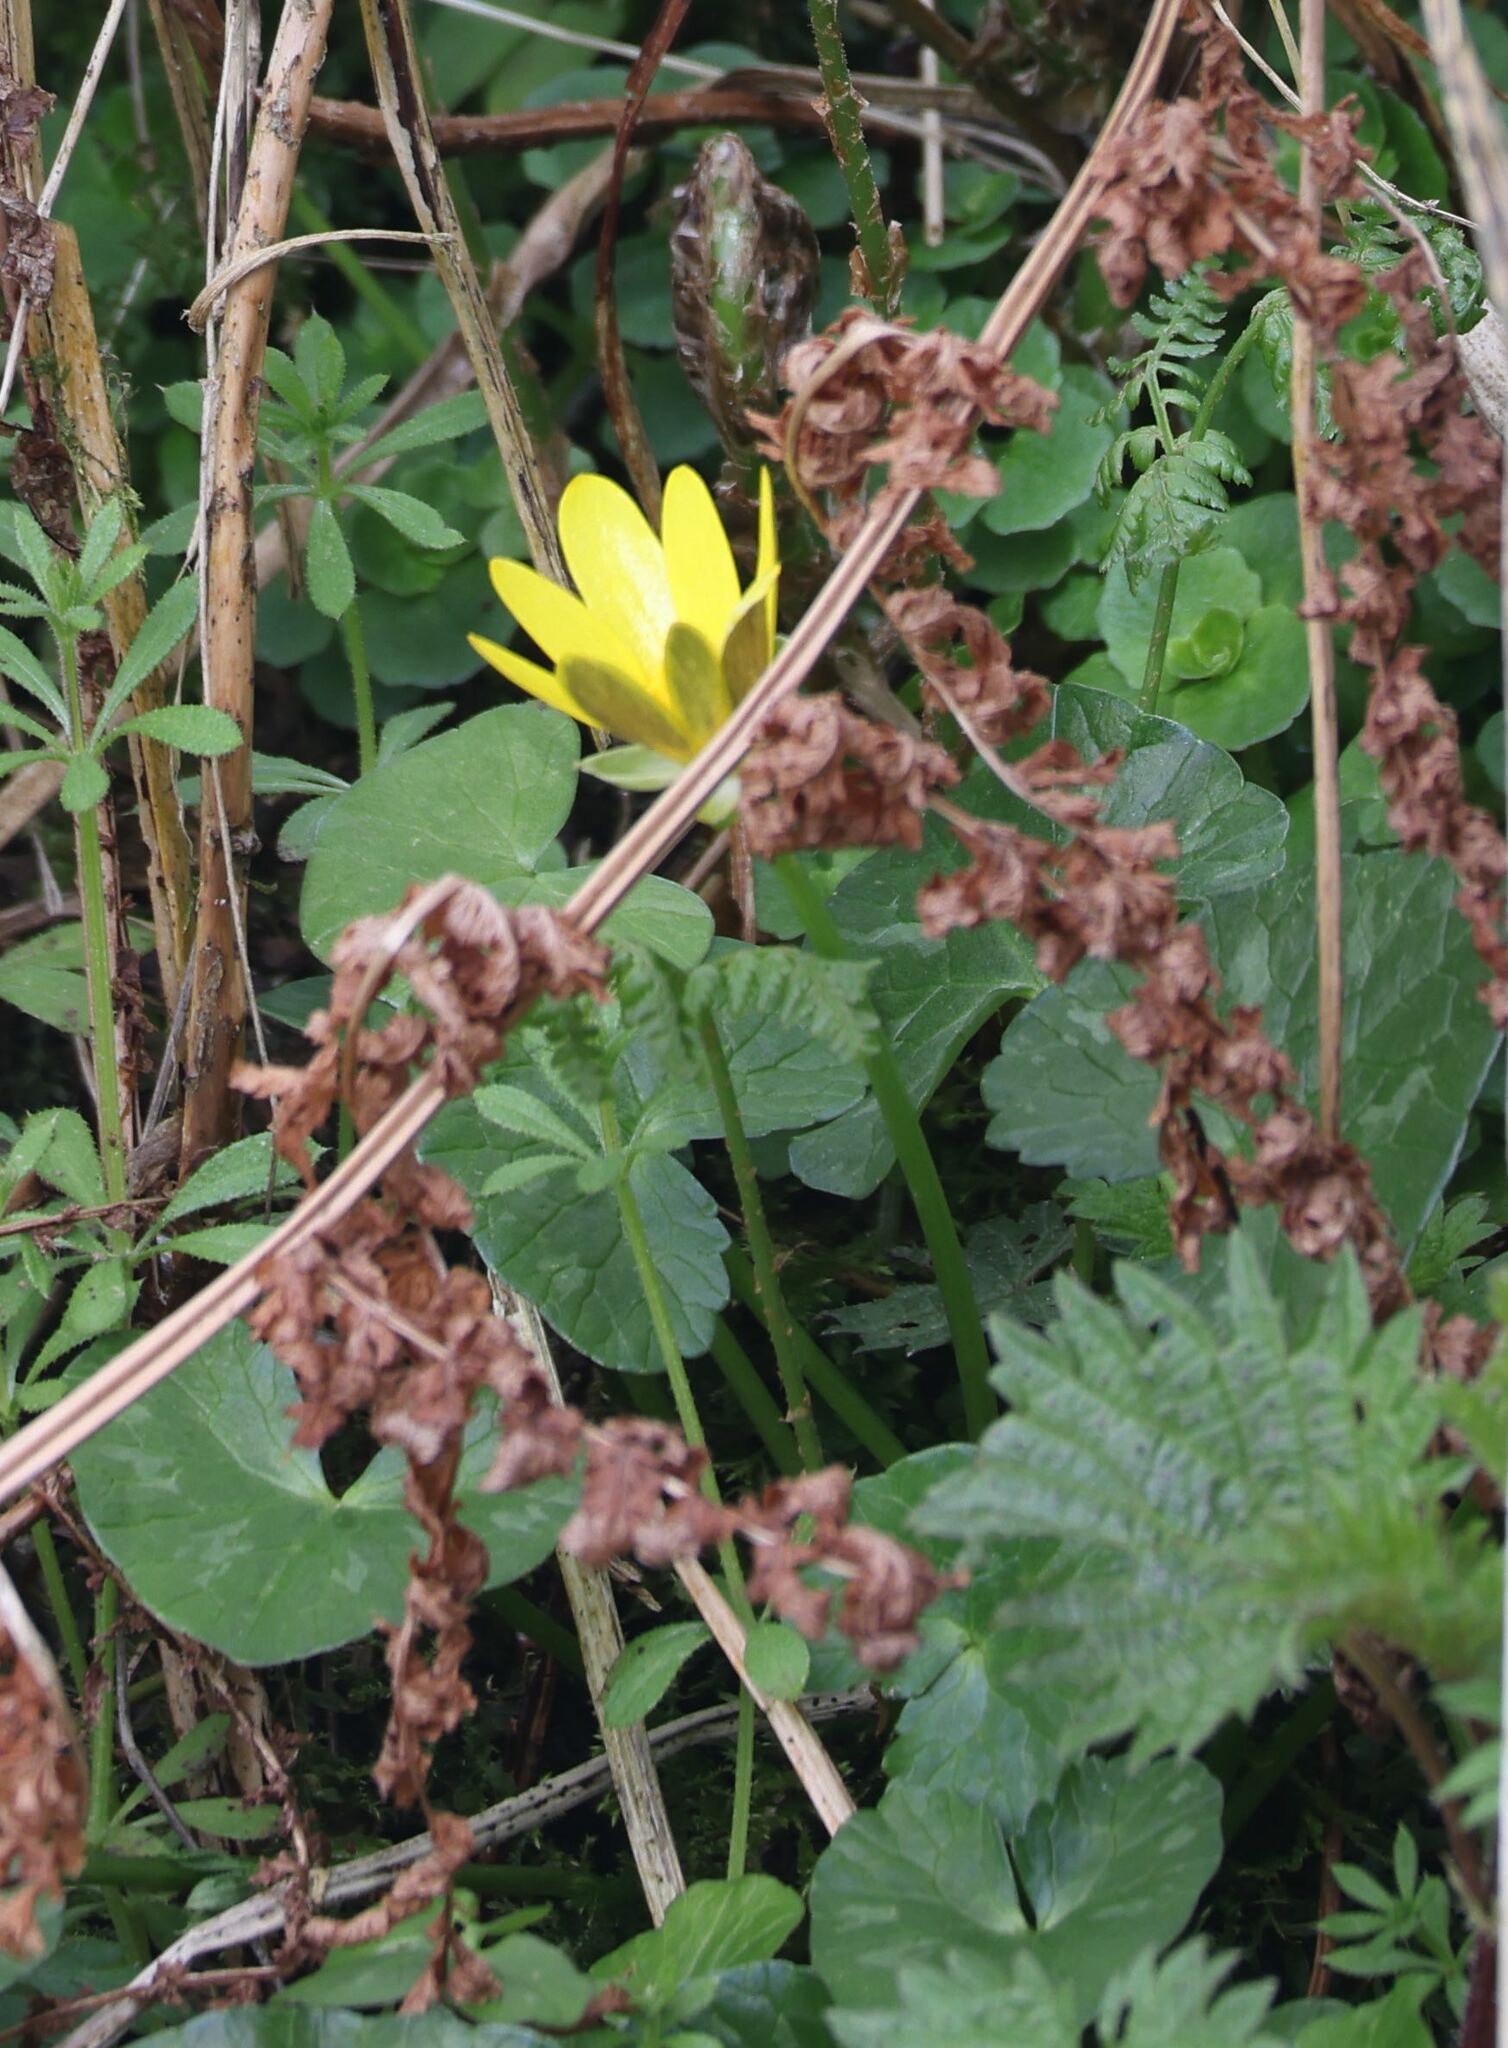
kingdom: Plantae
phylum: Tracheophyta
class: Magnoliopsida
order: Ranunculales
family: Ranunculaceae
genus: Ficaria
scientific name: Ficaria verna
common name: Lesser celandine
